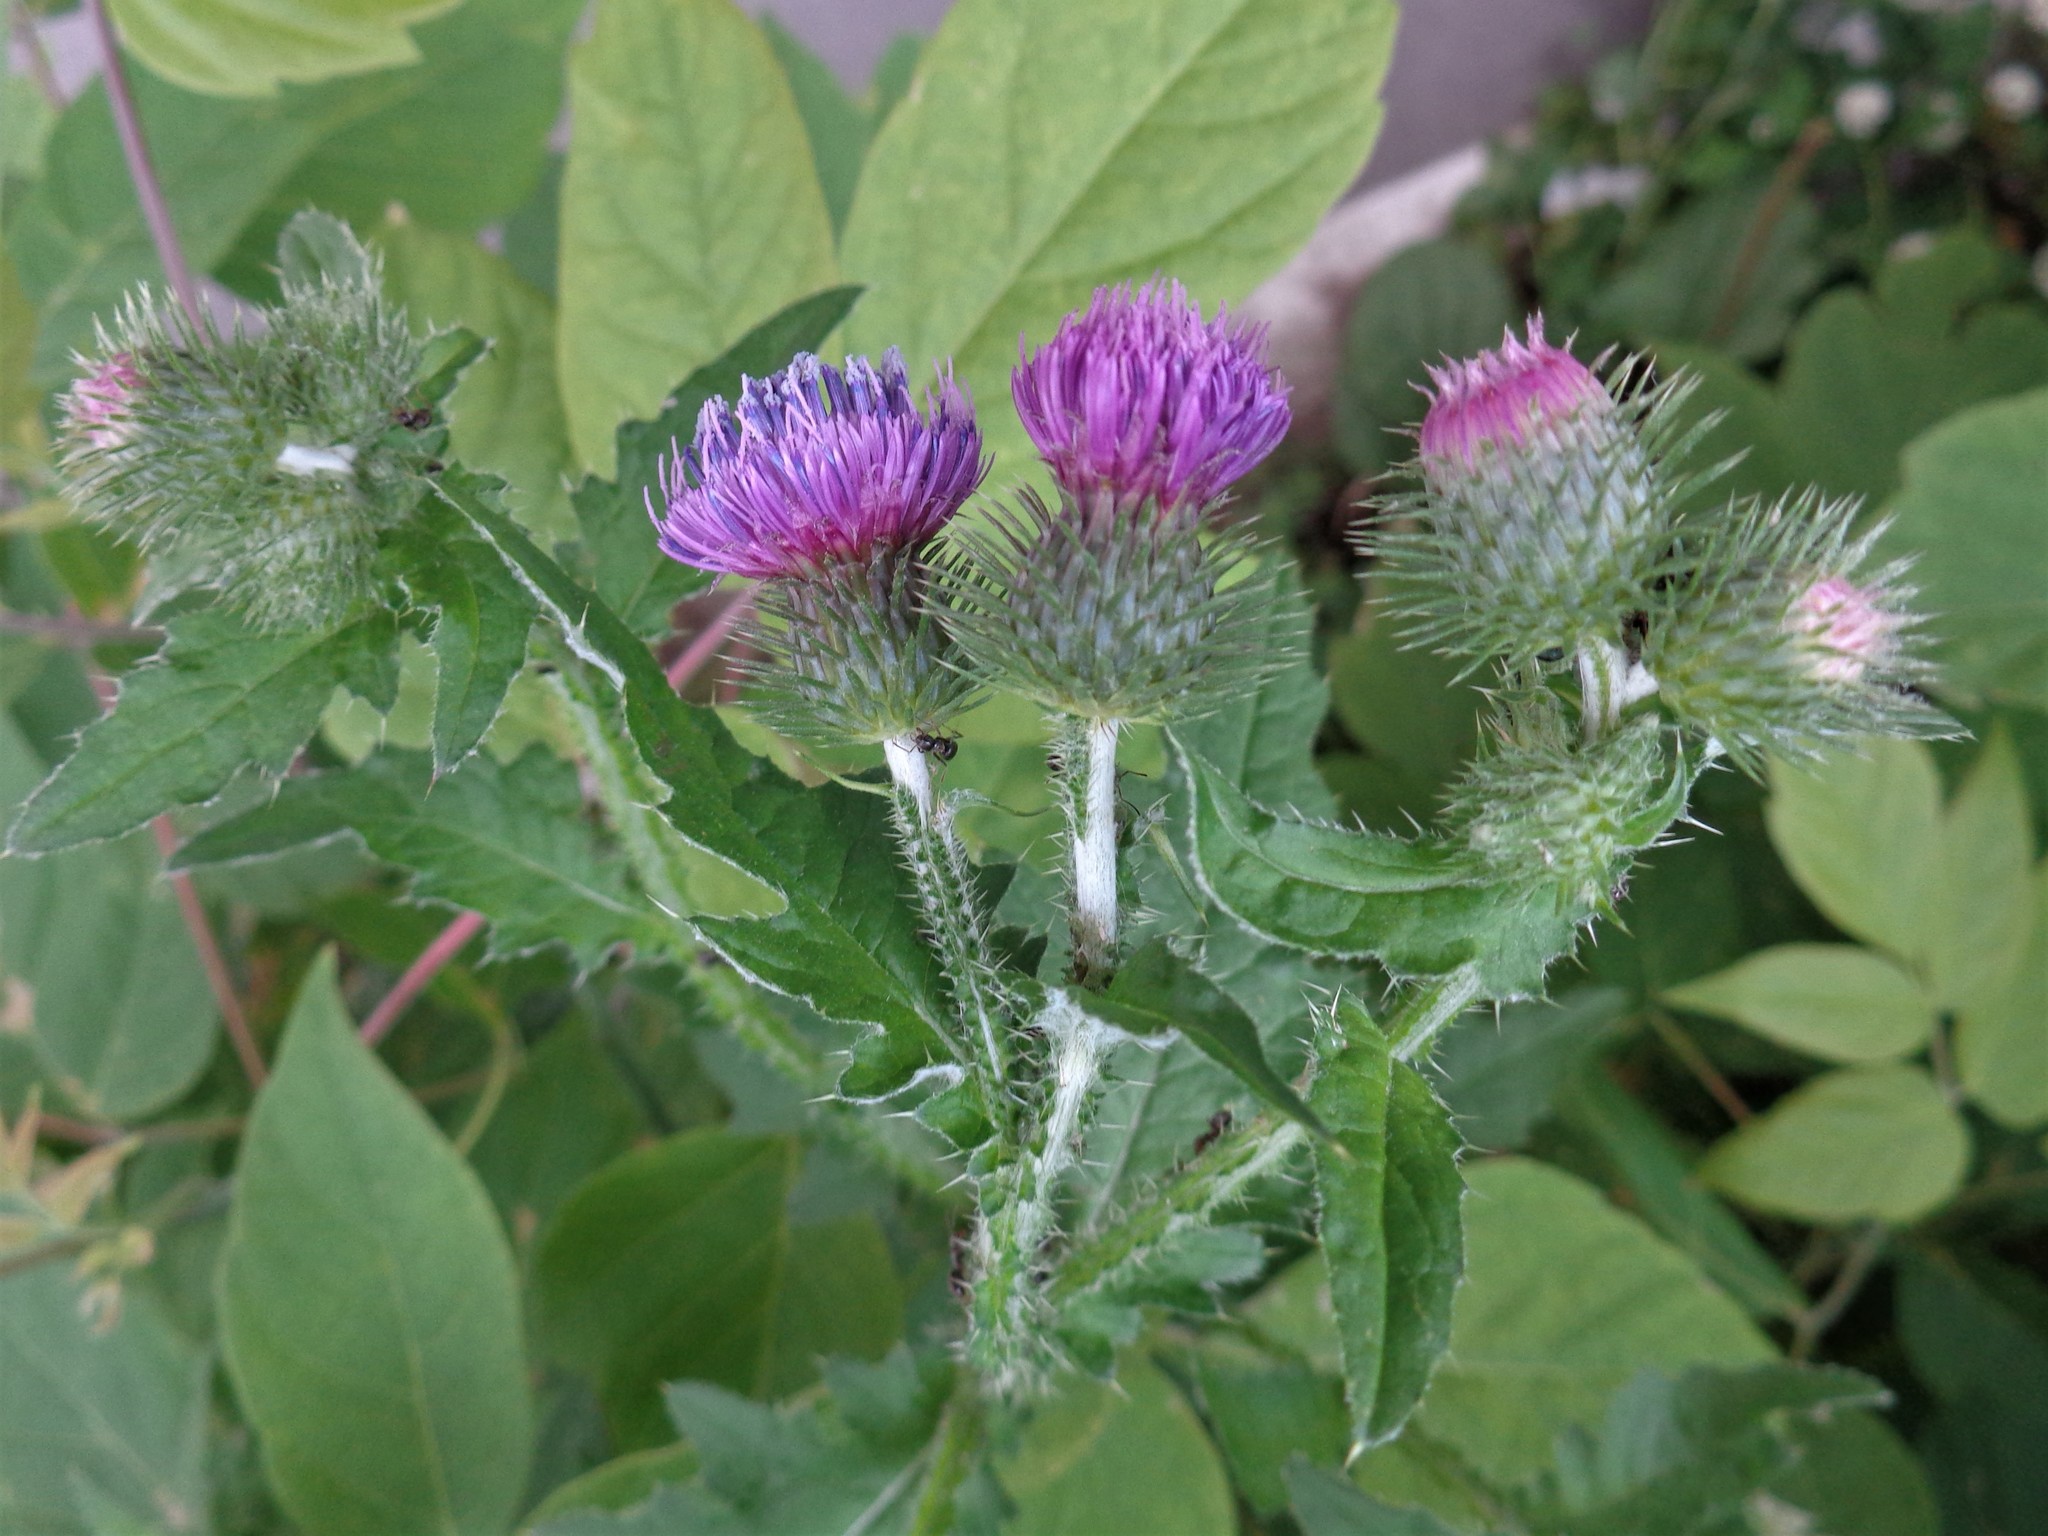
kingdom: Plantae
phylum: Tracheophyta
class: Magnoliopsida
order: Asterales
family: Asteraceae
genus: Carduus
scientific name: Carduus crispus
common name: Welted thistle
